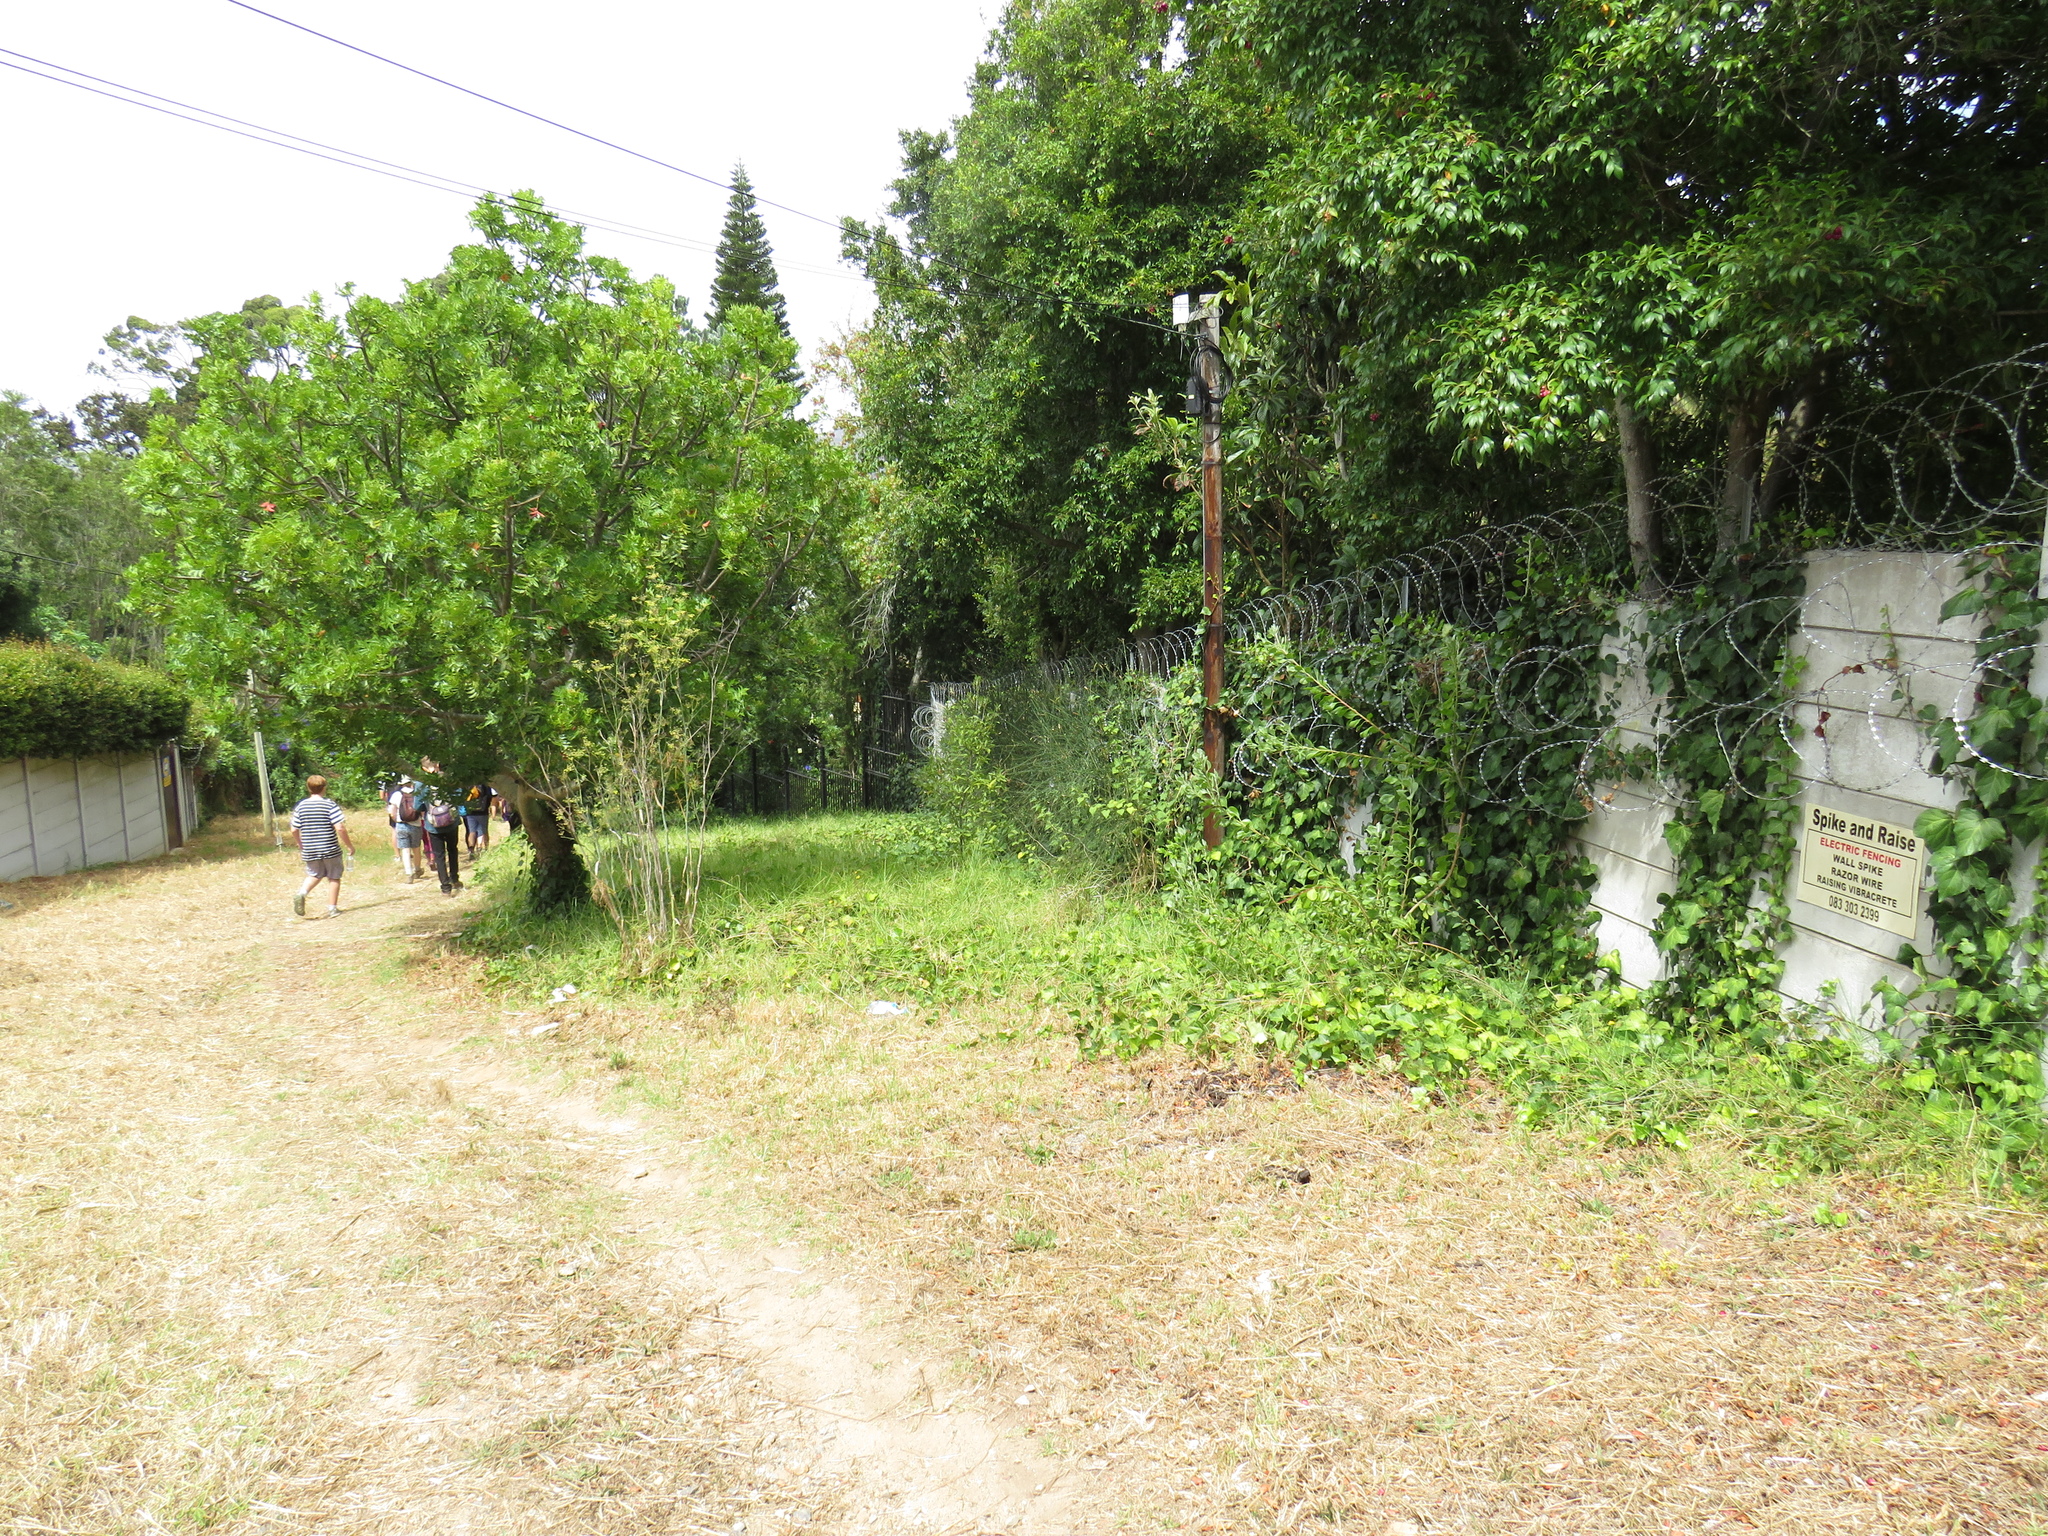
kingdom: Plantae
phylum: Tracheophyta
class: Magnoliopsida
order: Fabales
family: Fabaceae
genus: Spartium
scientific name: Spartium junceum
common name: Spanish broom
